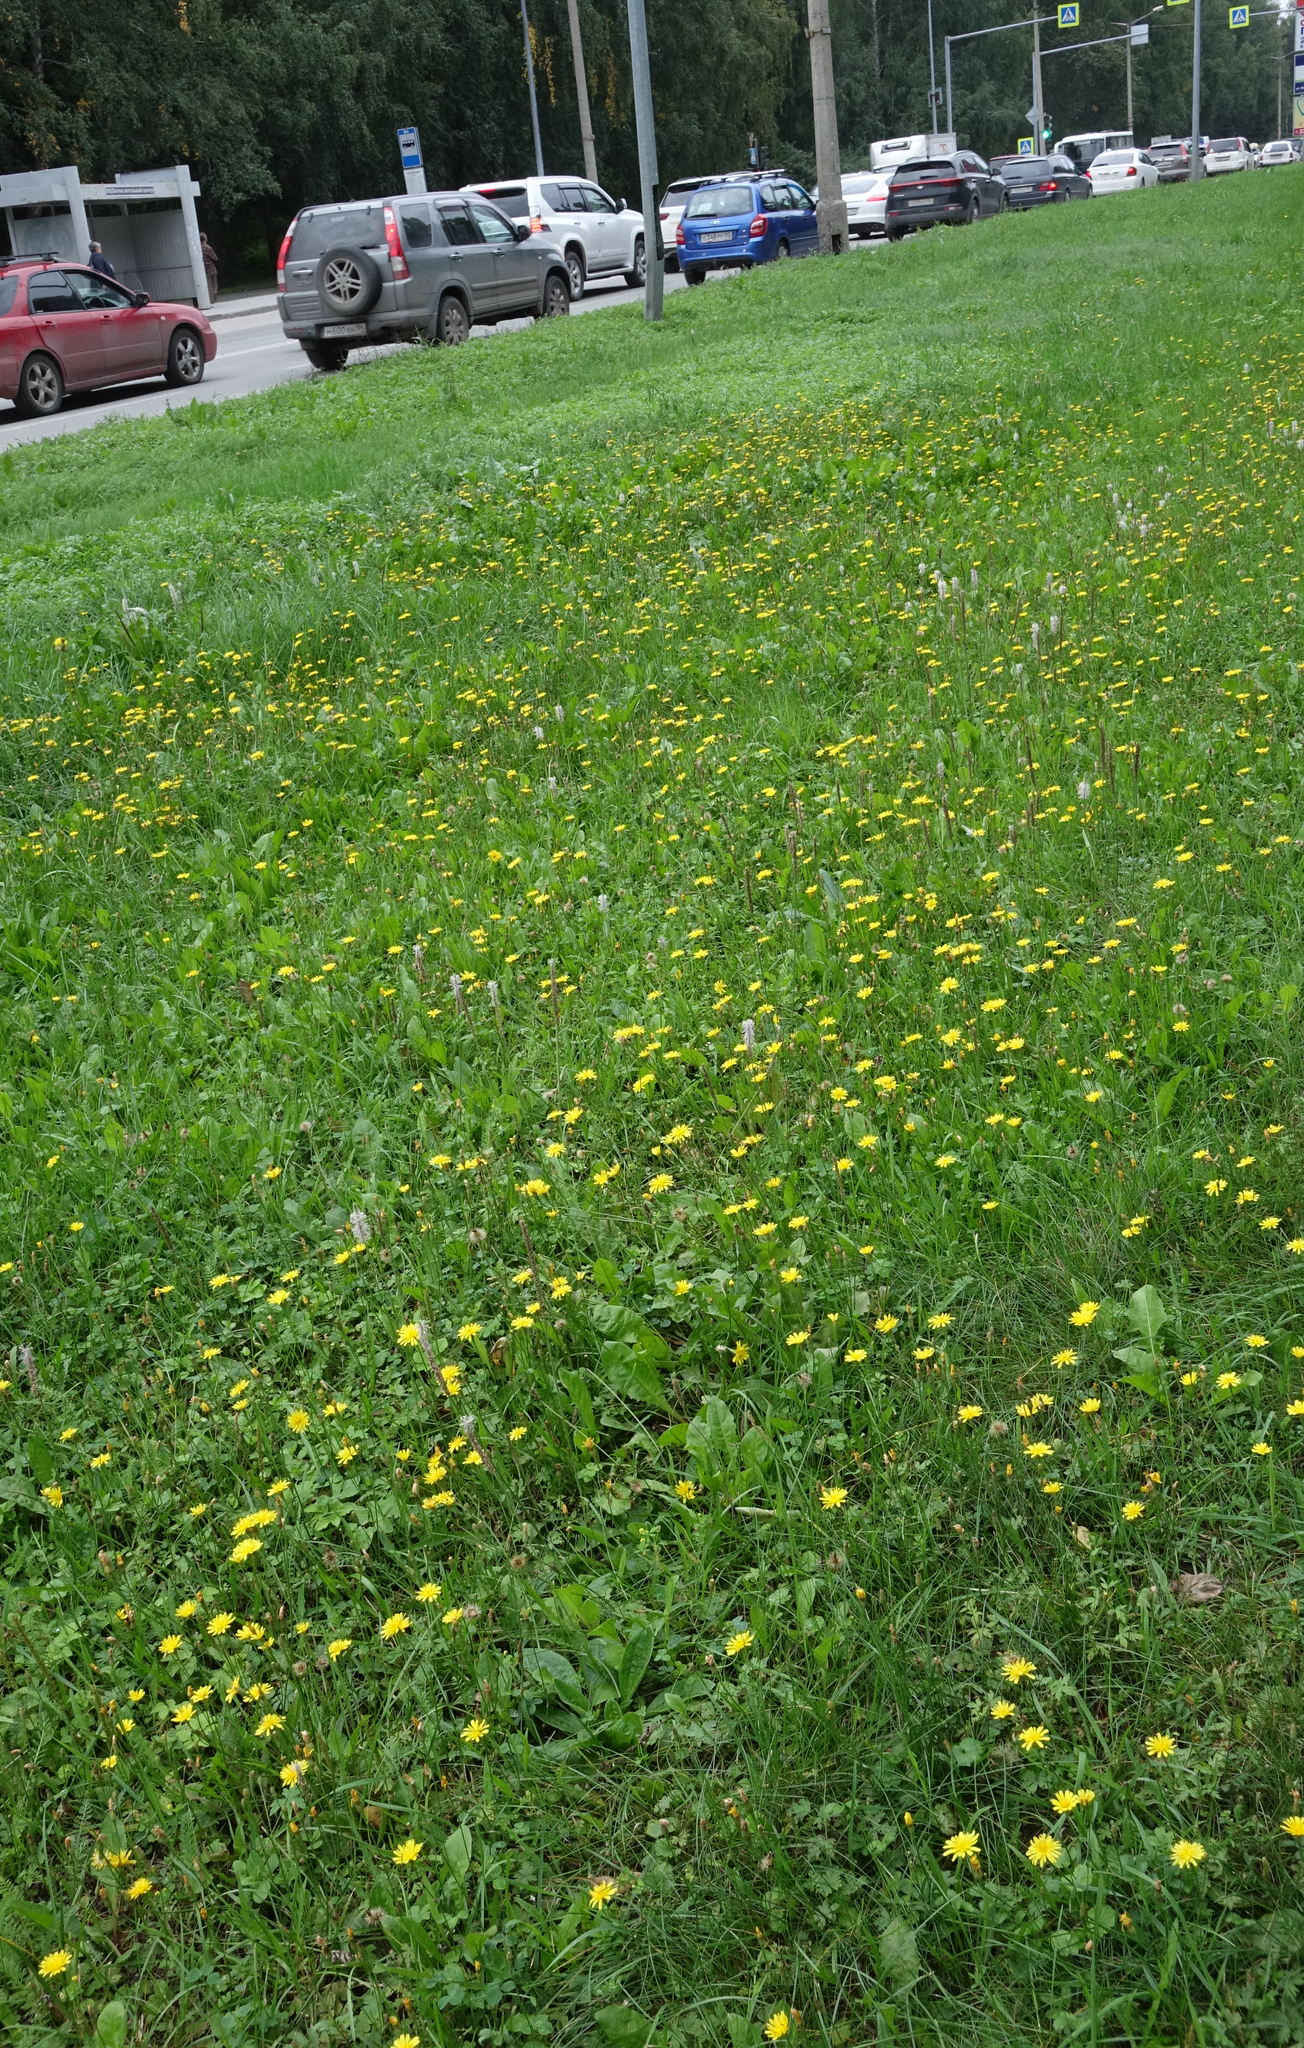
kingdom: Plantae
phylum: Tracheophyta
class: Magnoliopsida
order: Asterales
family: Asteraceae
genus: Scorzoneroides
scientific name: Scorzoneroides autumnalis
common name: Autumn hawkbit
